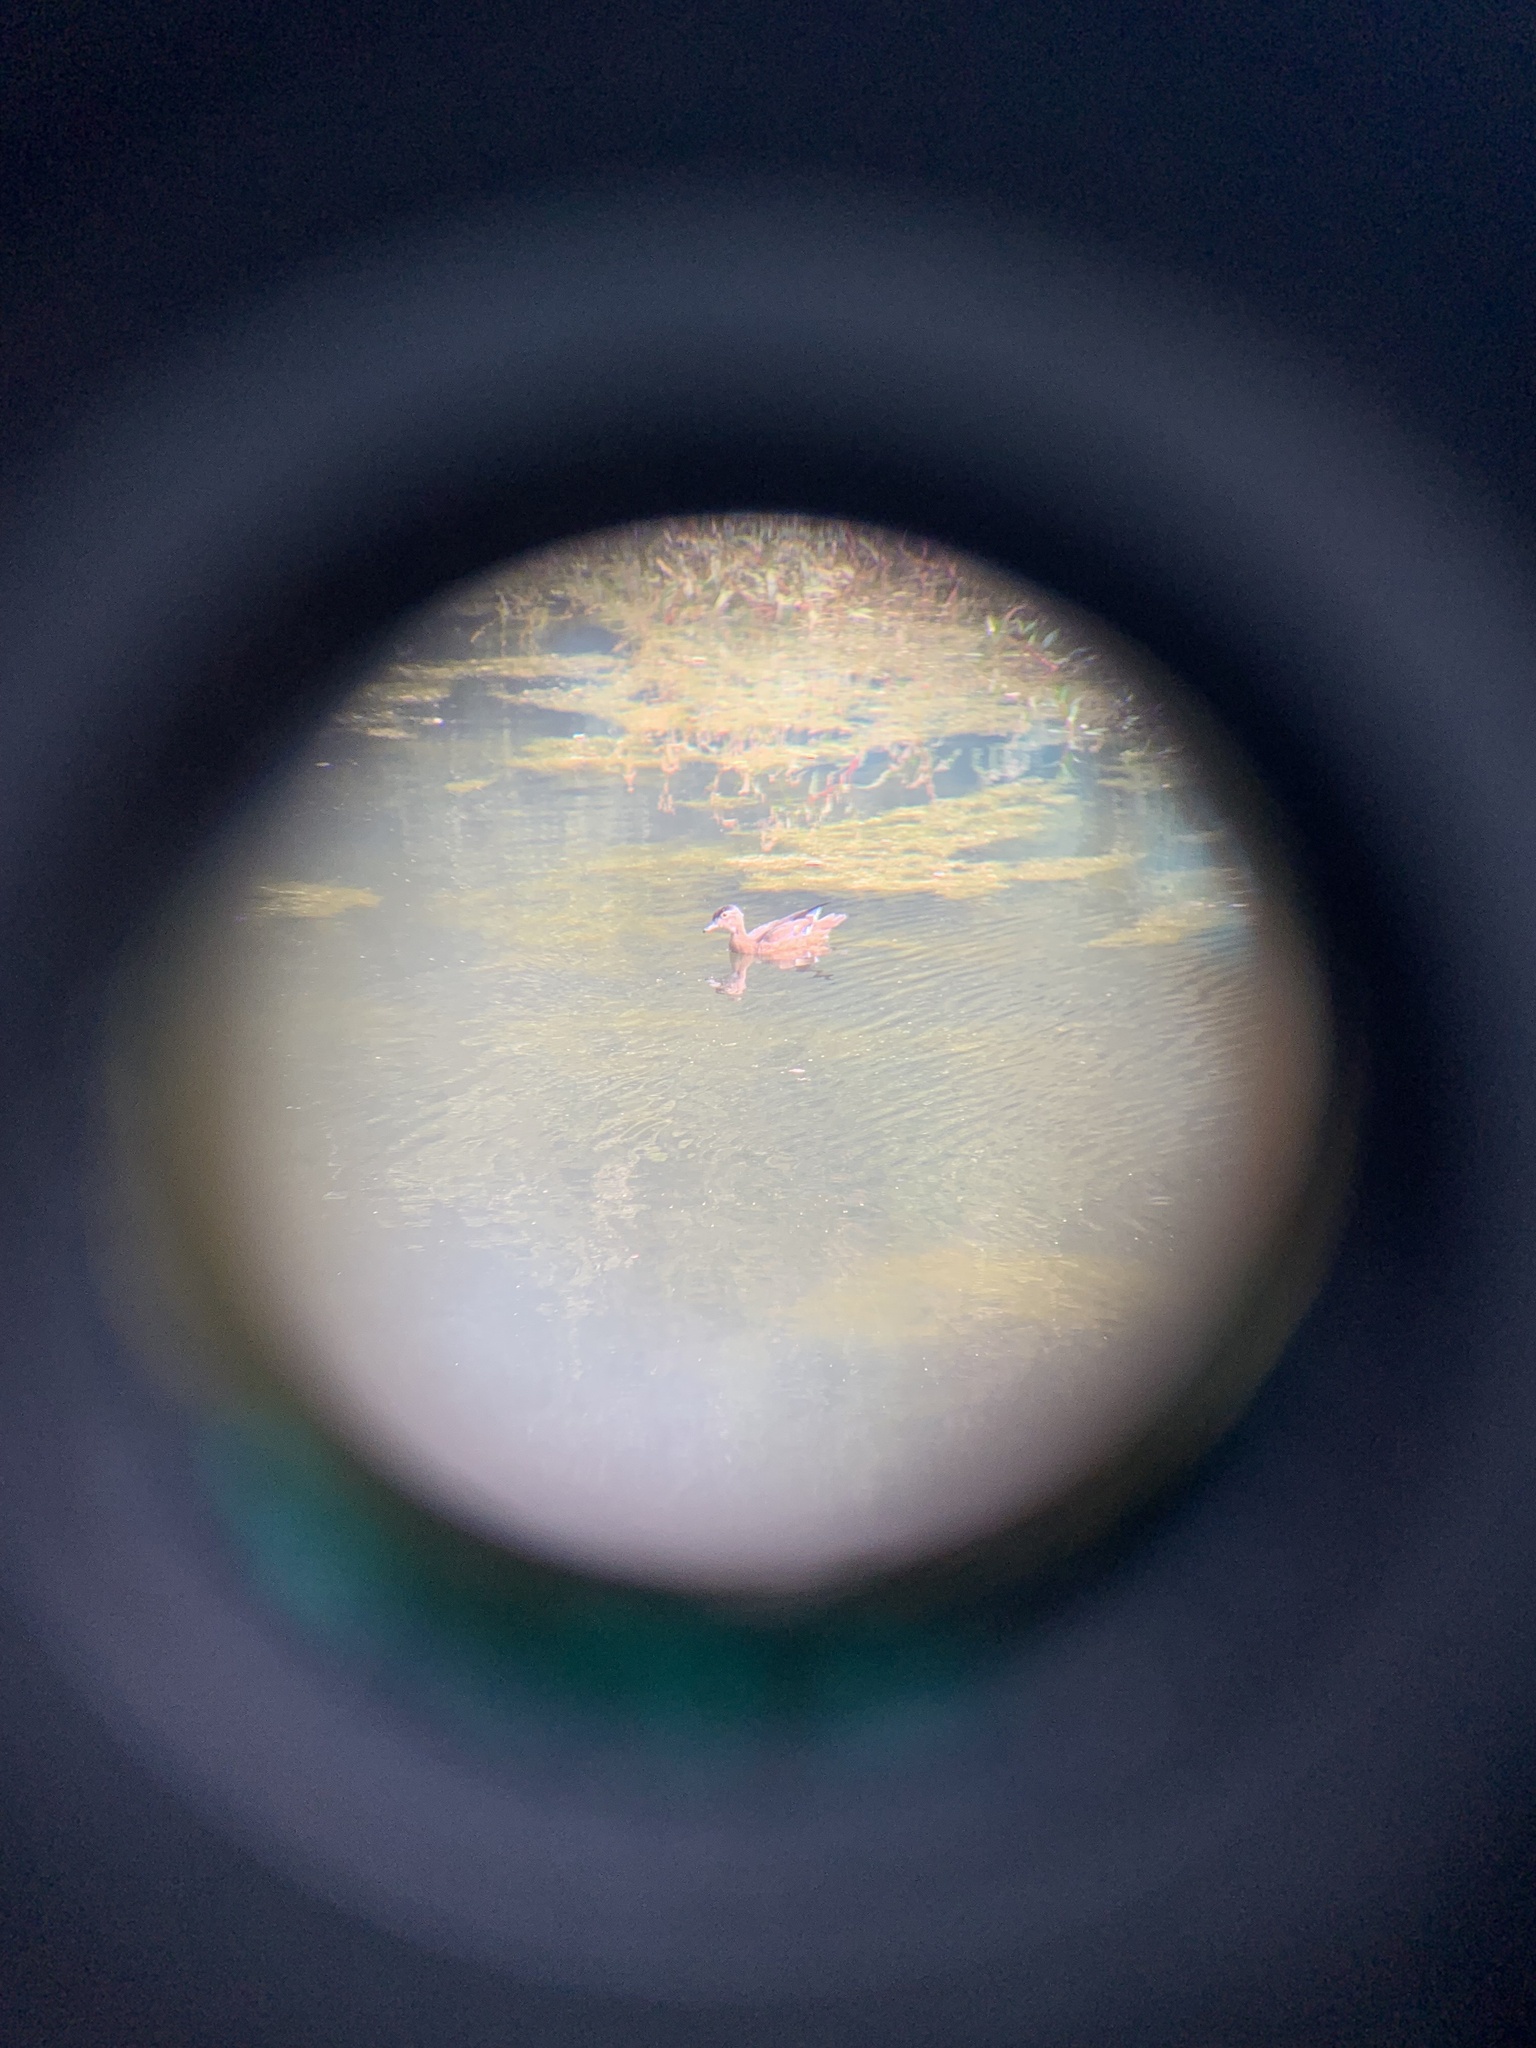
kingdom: Animalia
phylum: Chordata
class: Aves
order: Anseriformes
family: Anatidae
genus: Aix
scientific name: Aix sponsa
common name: Wood duck
